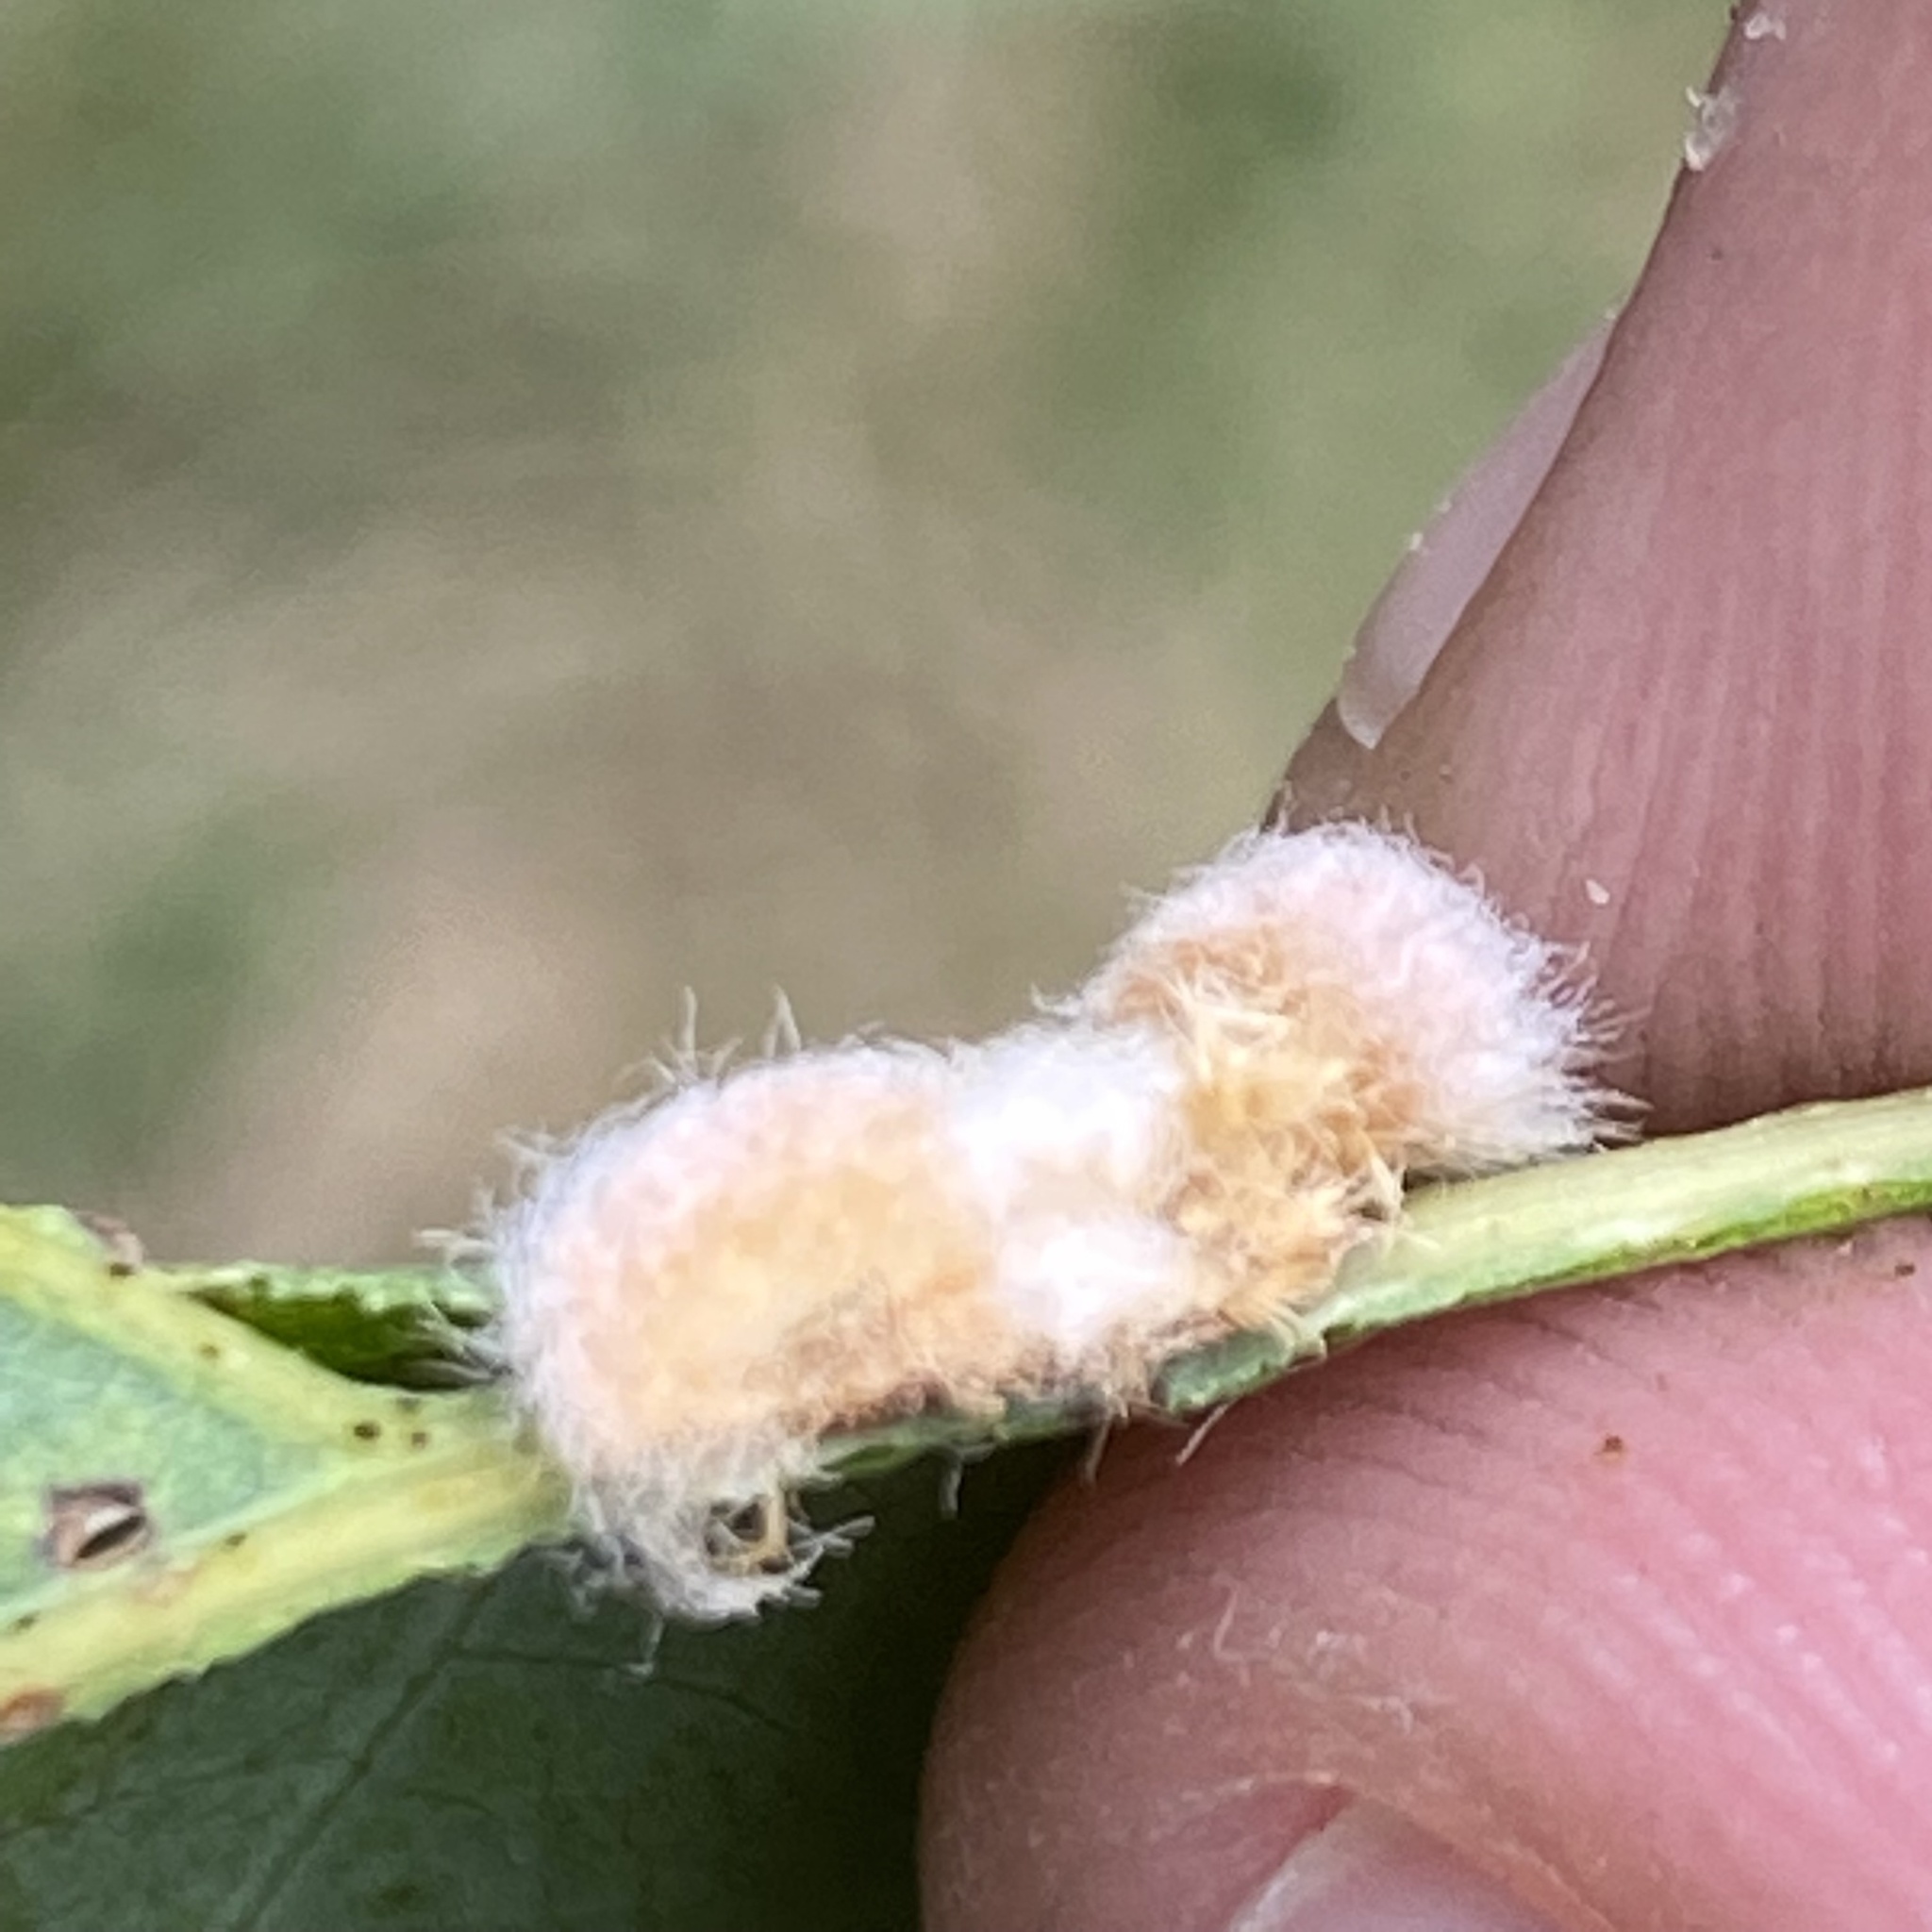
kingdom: Animalia
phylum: Arthropoda
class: Insecta
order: Hymenoptera
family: Cynipidae
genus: Andricus
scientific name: Andricus quercusflocci
